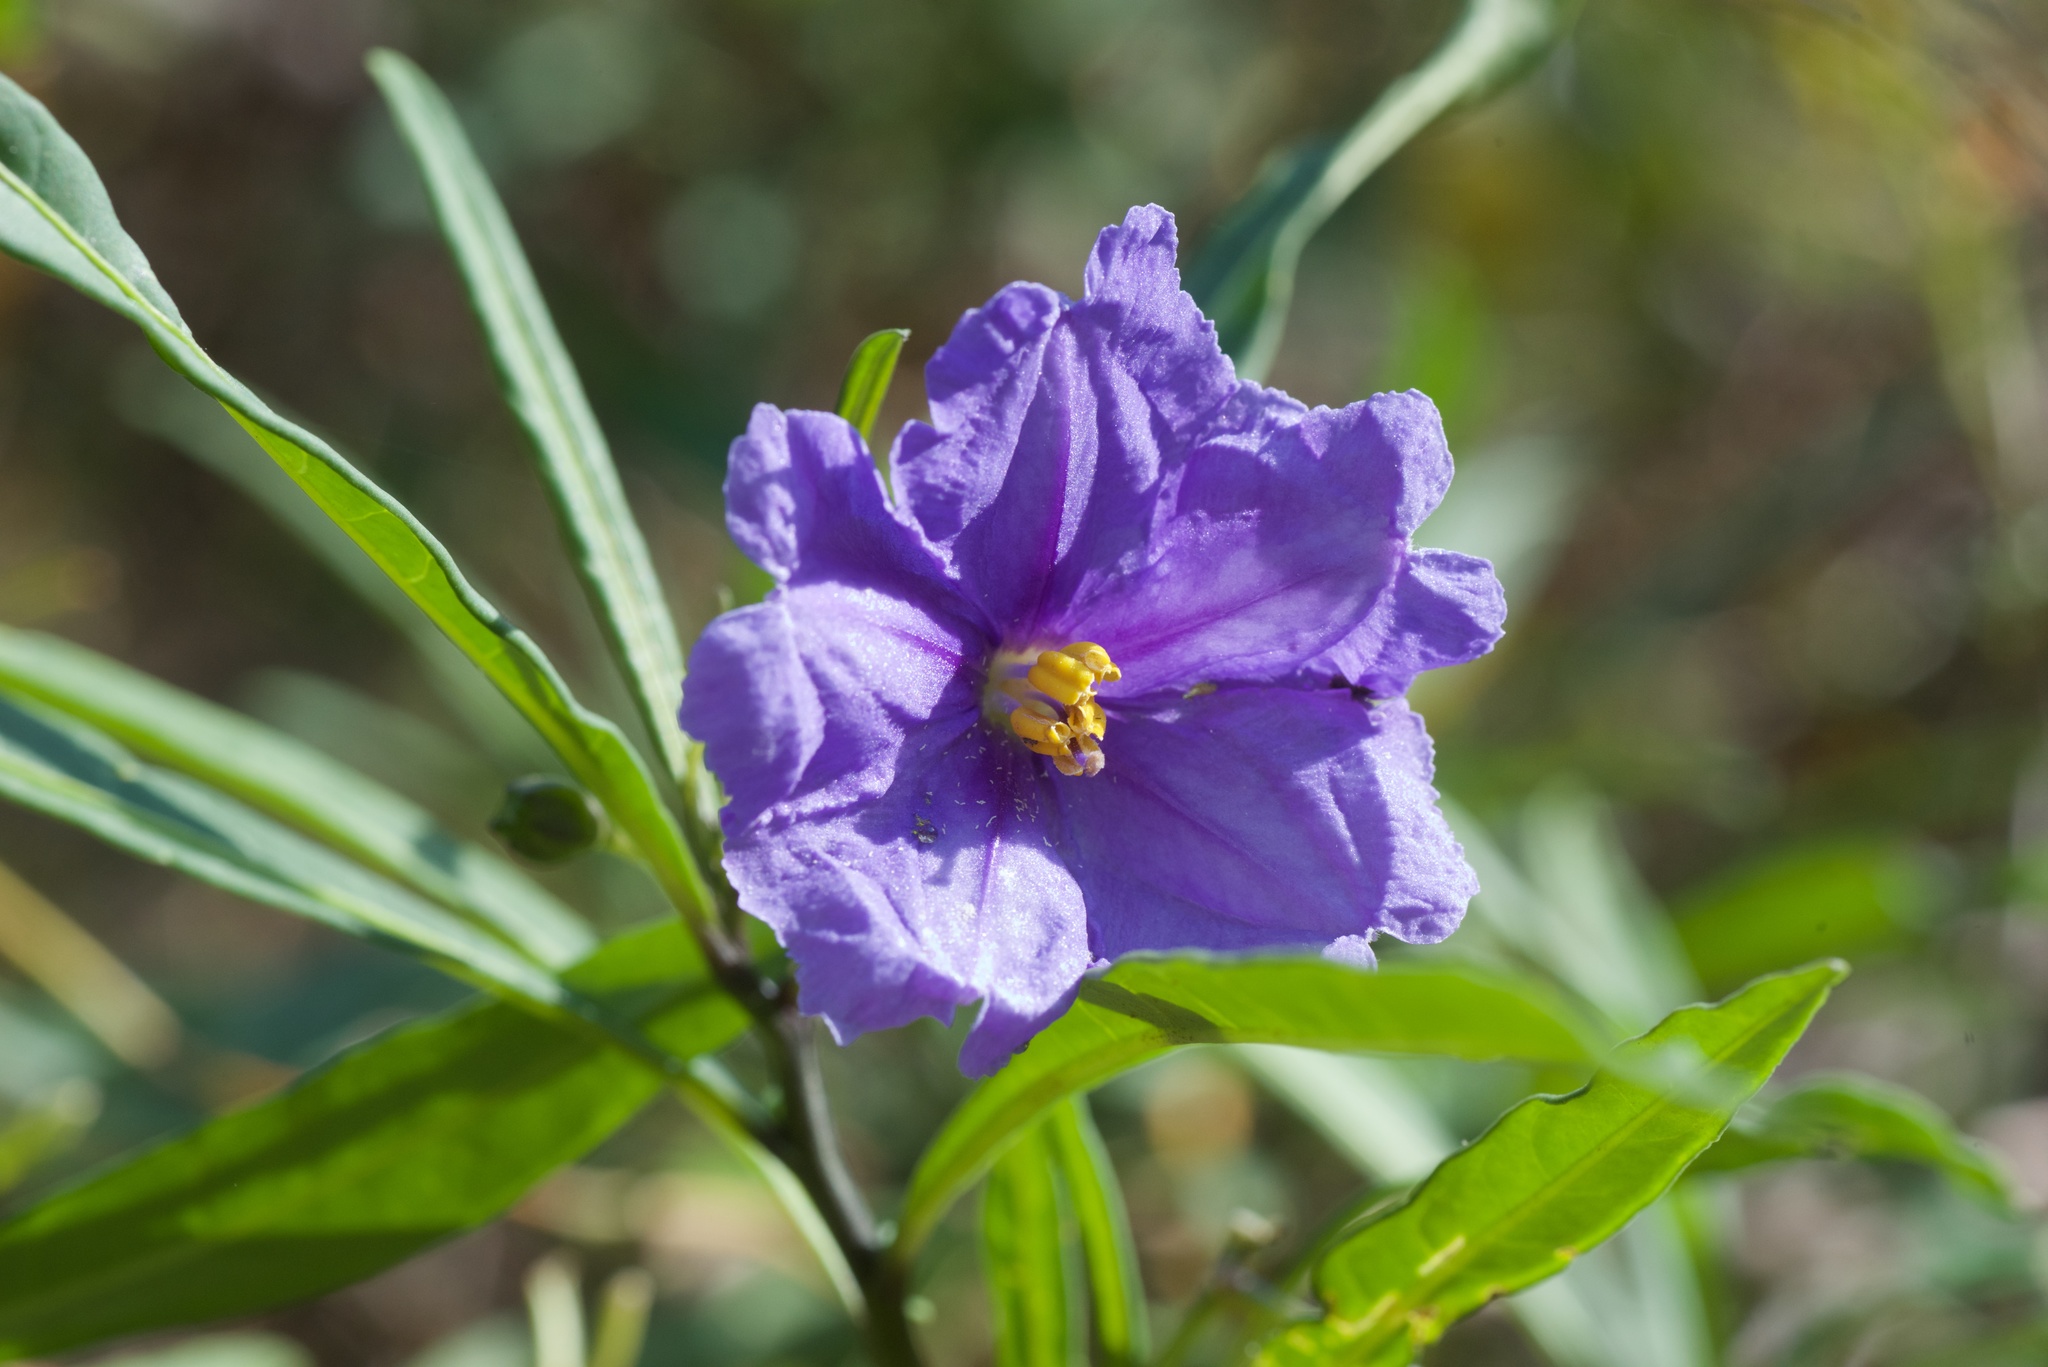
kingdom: Plantae
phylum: Tracheophyta
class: Magnoliopsida
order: Solanales
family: Solanaceae
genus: Solanum
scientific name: Solanum laciniatum
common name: Kangaroo-apple
